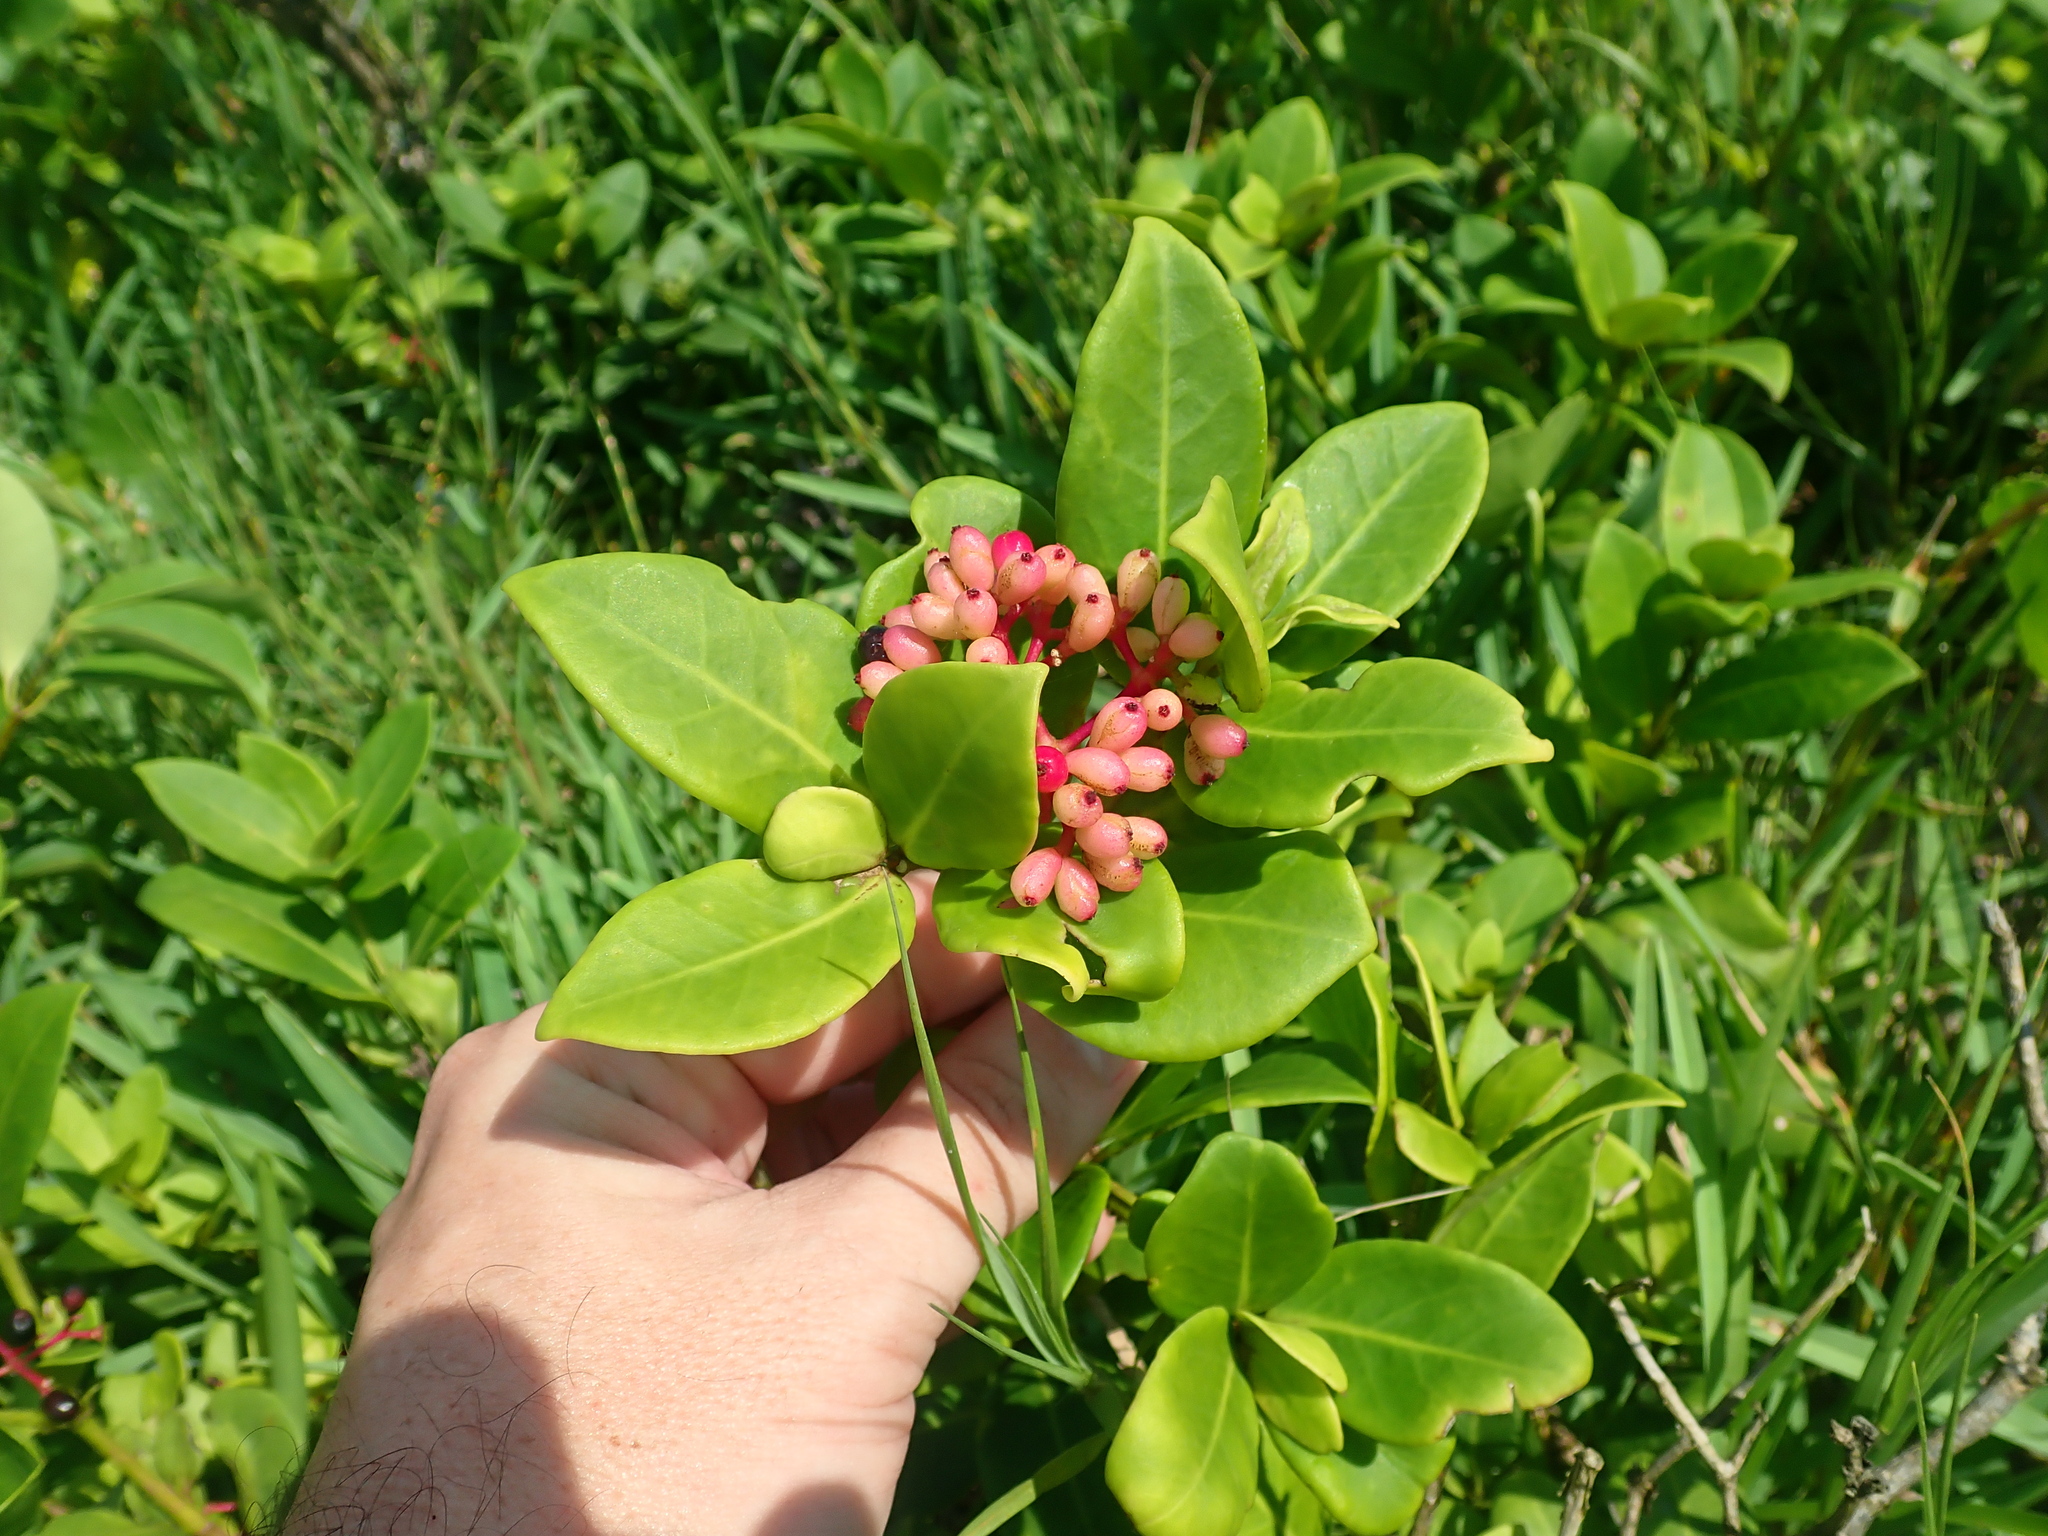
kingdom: Plantae
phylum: Tracheophyta
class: Magnoliopsida
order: Caryophyllales
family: Nyctaginaceae
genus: Guapira
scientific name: Guapira opposita
